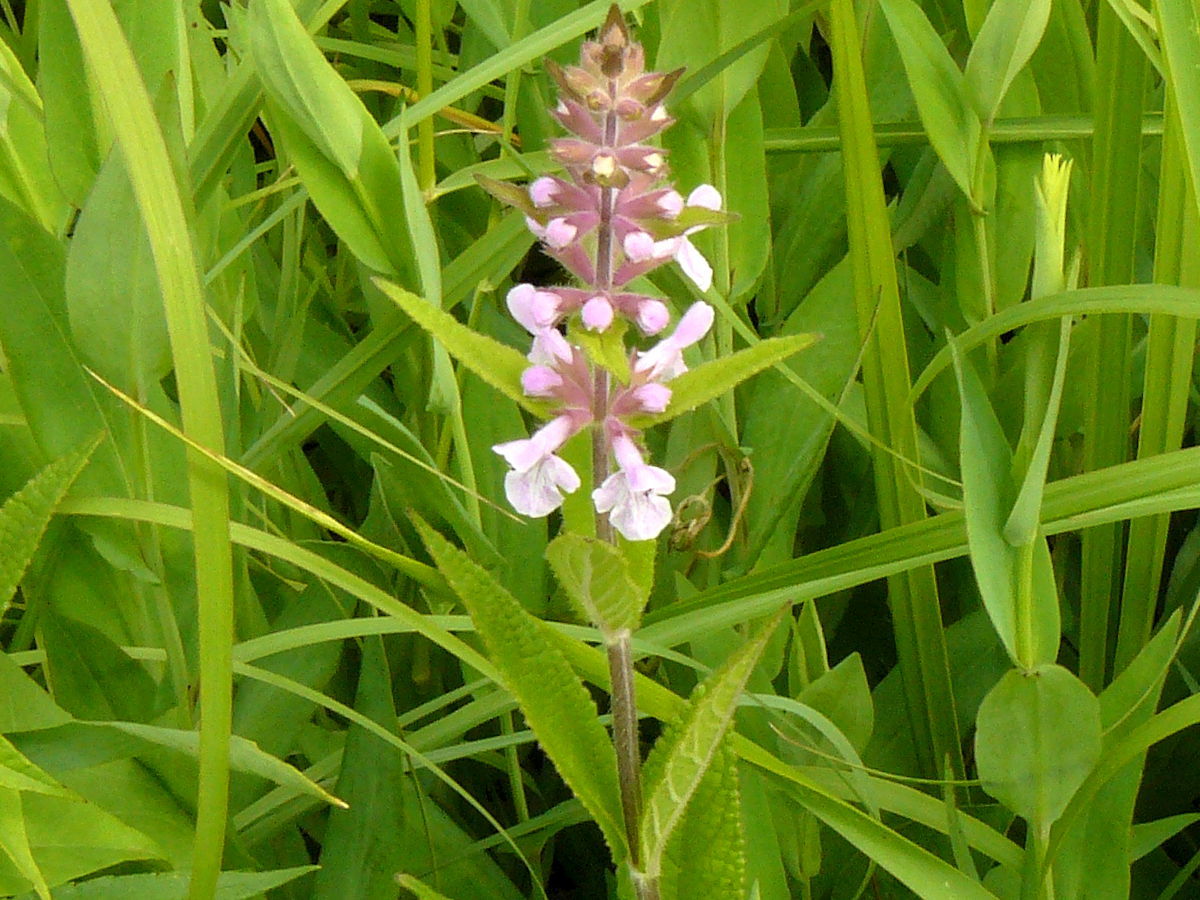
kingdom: Plantae
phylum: Tracheophyta
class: Magnoliopsida
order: Lamiales
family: Lamiaceae
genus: Stachys
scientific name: Stachys hispida
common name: Hispid hedge-nettle
